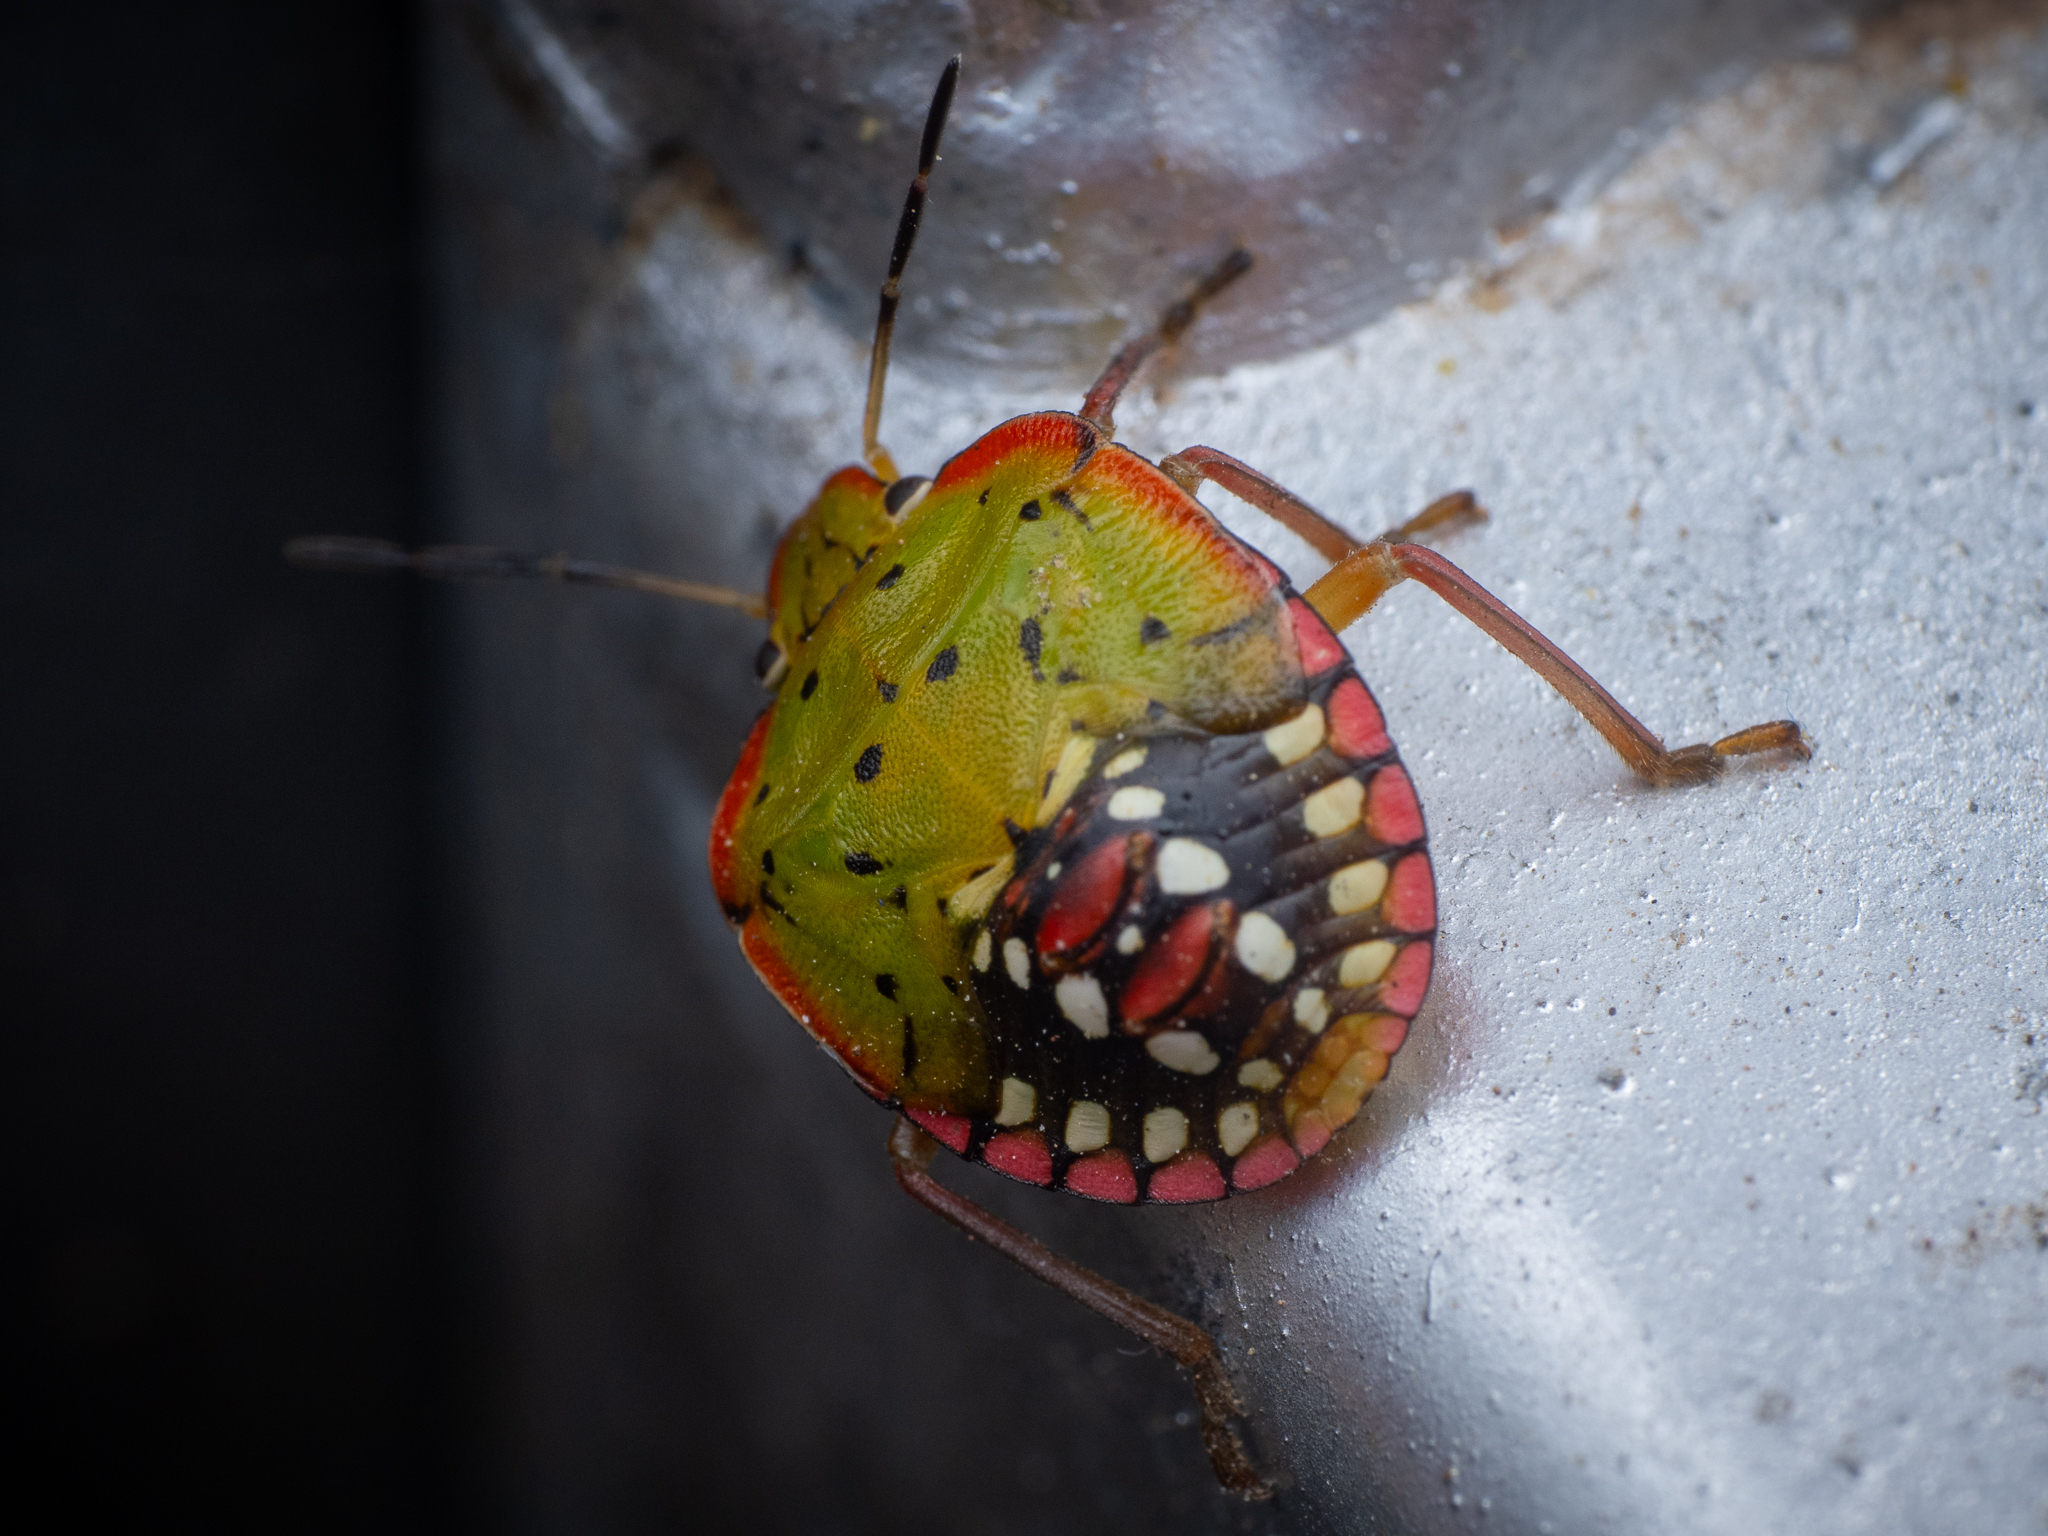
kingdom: Animalia
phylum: Arthropoda
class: Insecta
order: Hemiptera
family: Pentatomidae
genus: Nezara
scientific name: Nezara viridula
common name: Southern green stink bug
